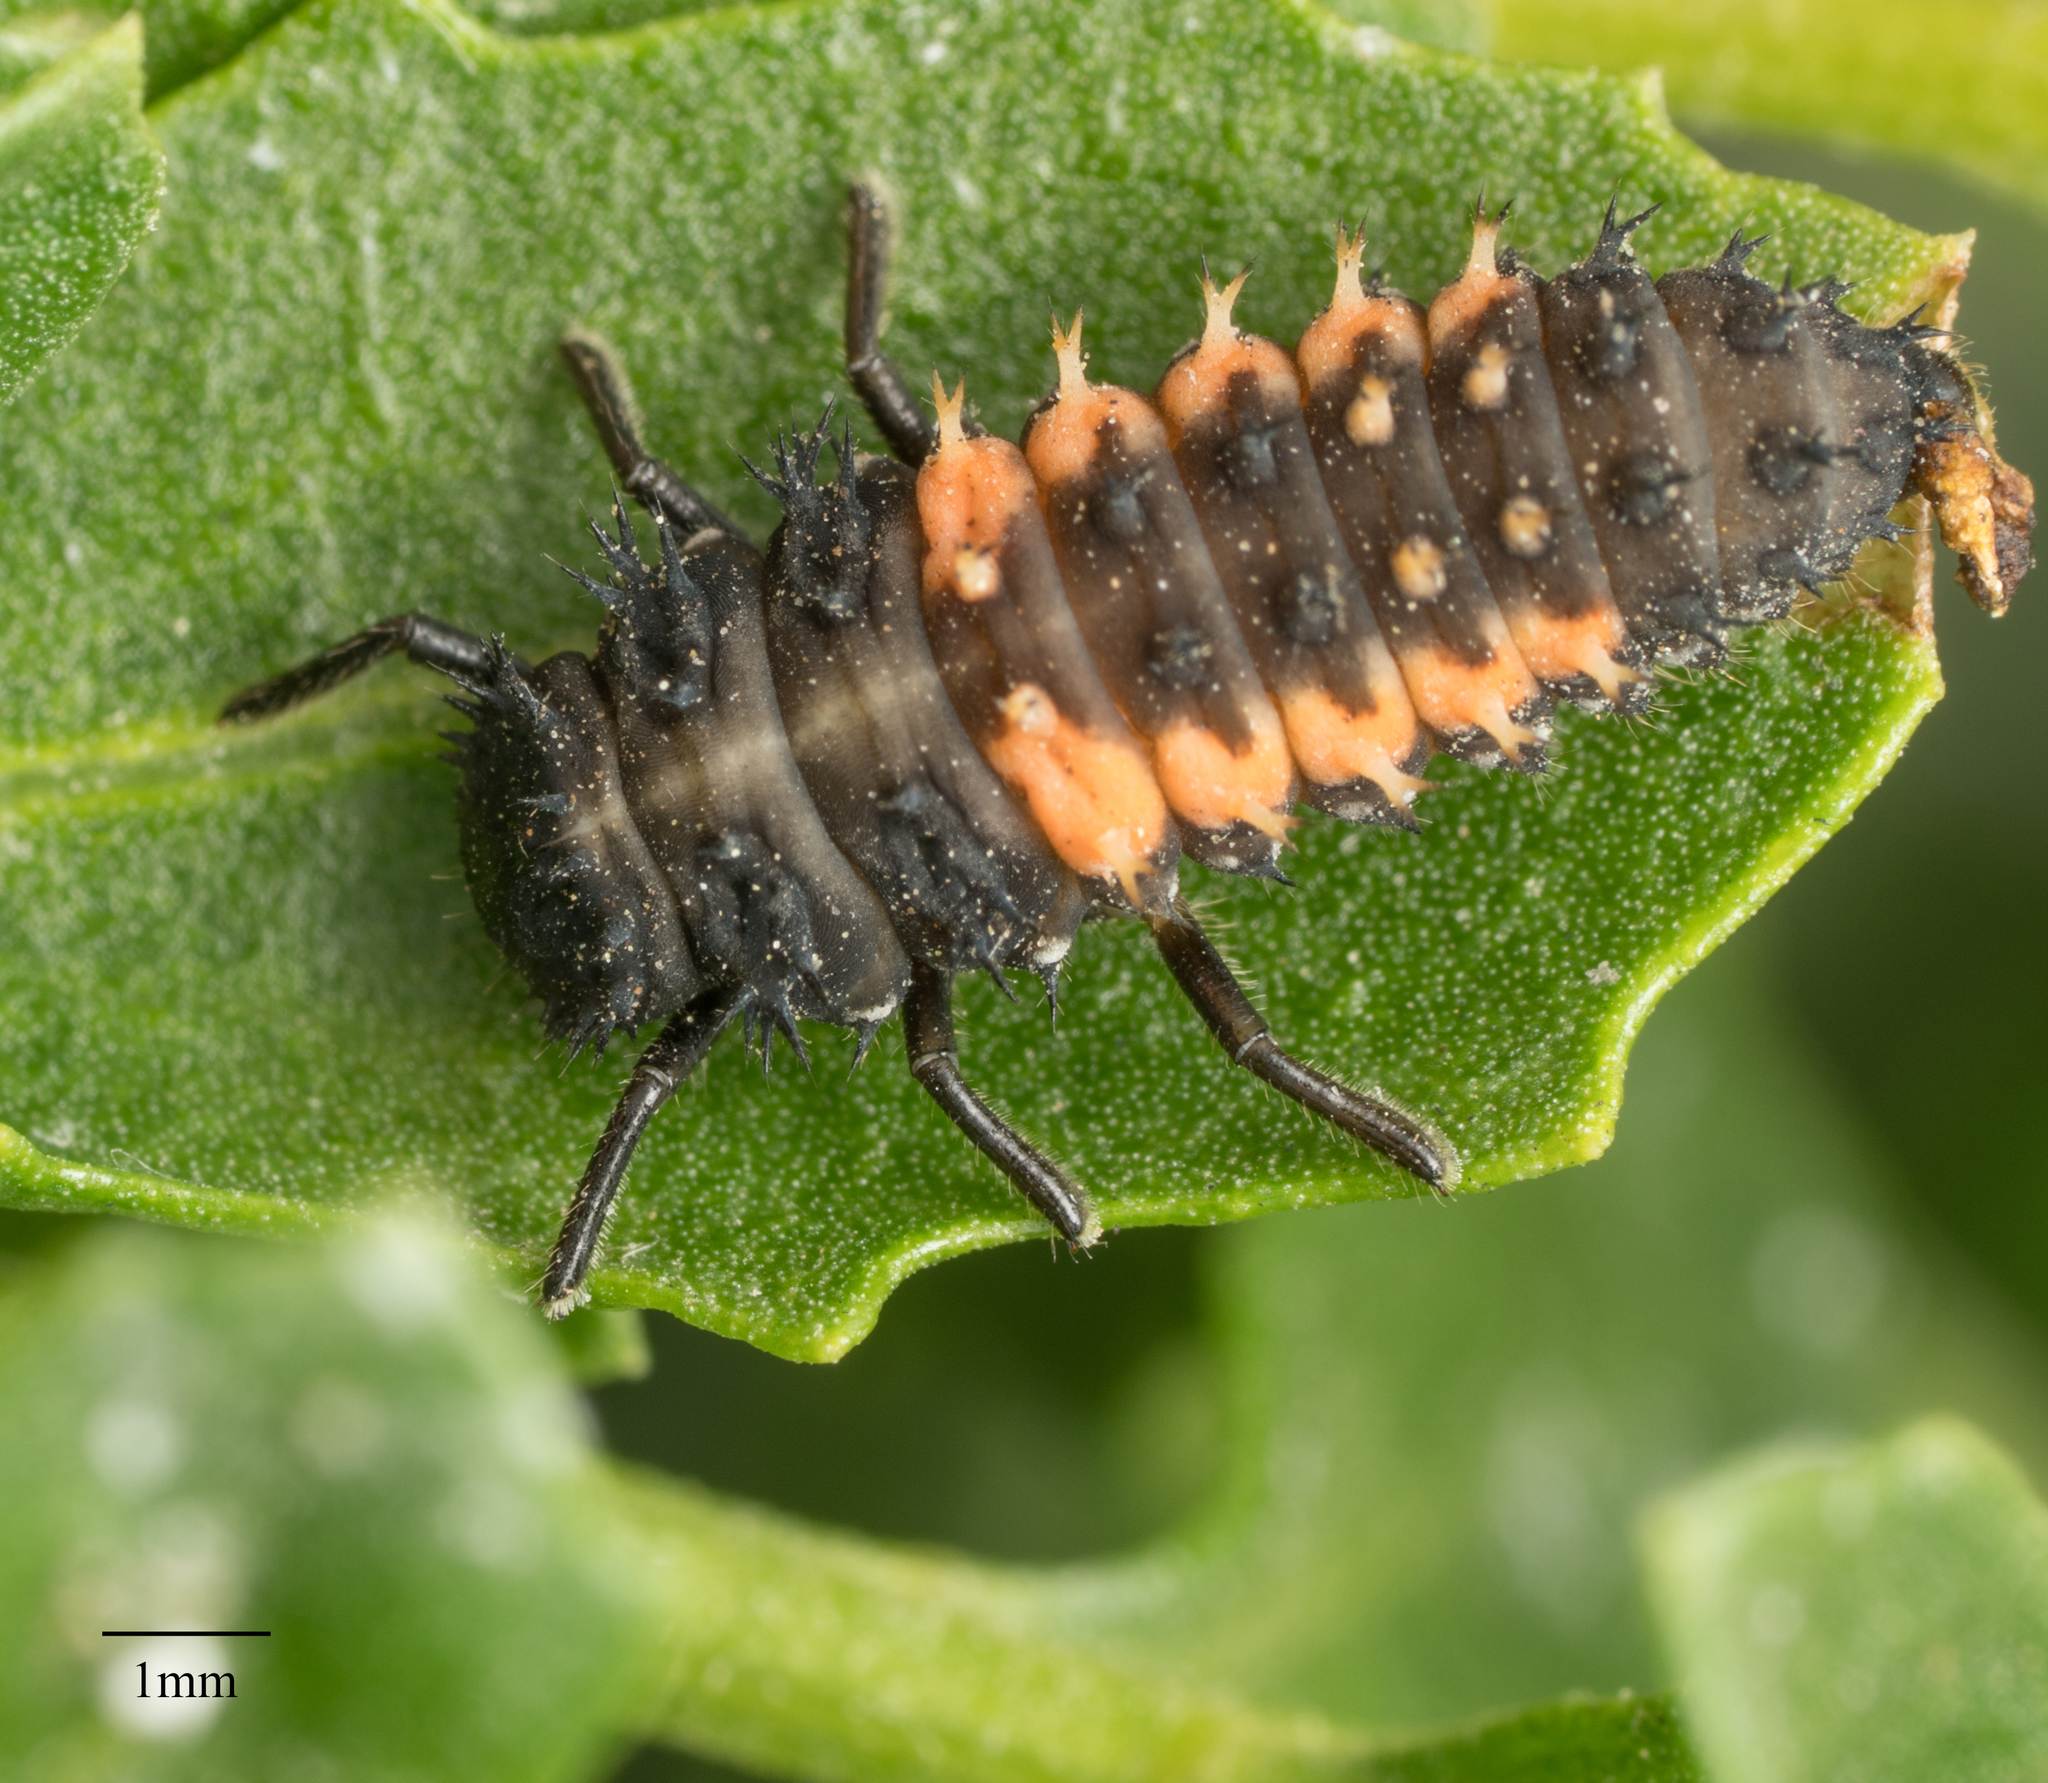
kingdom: Animalia
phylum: Arthropoda
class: Insecta
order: Coleoptera
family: Coccinellidae
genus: Harmonia
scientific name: Harmonia axyridis
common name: Harlequin ladybird
